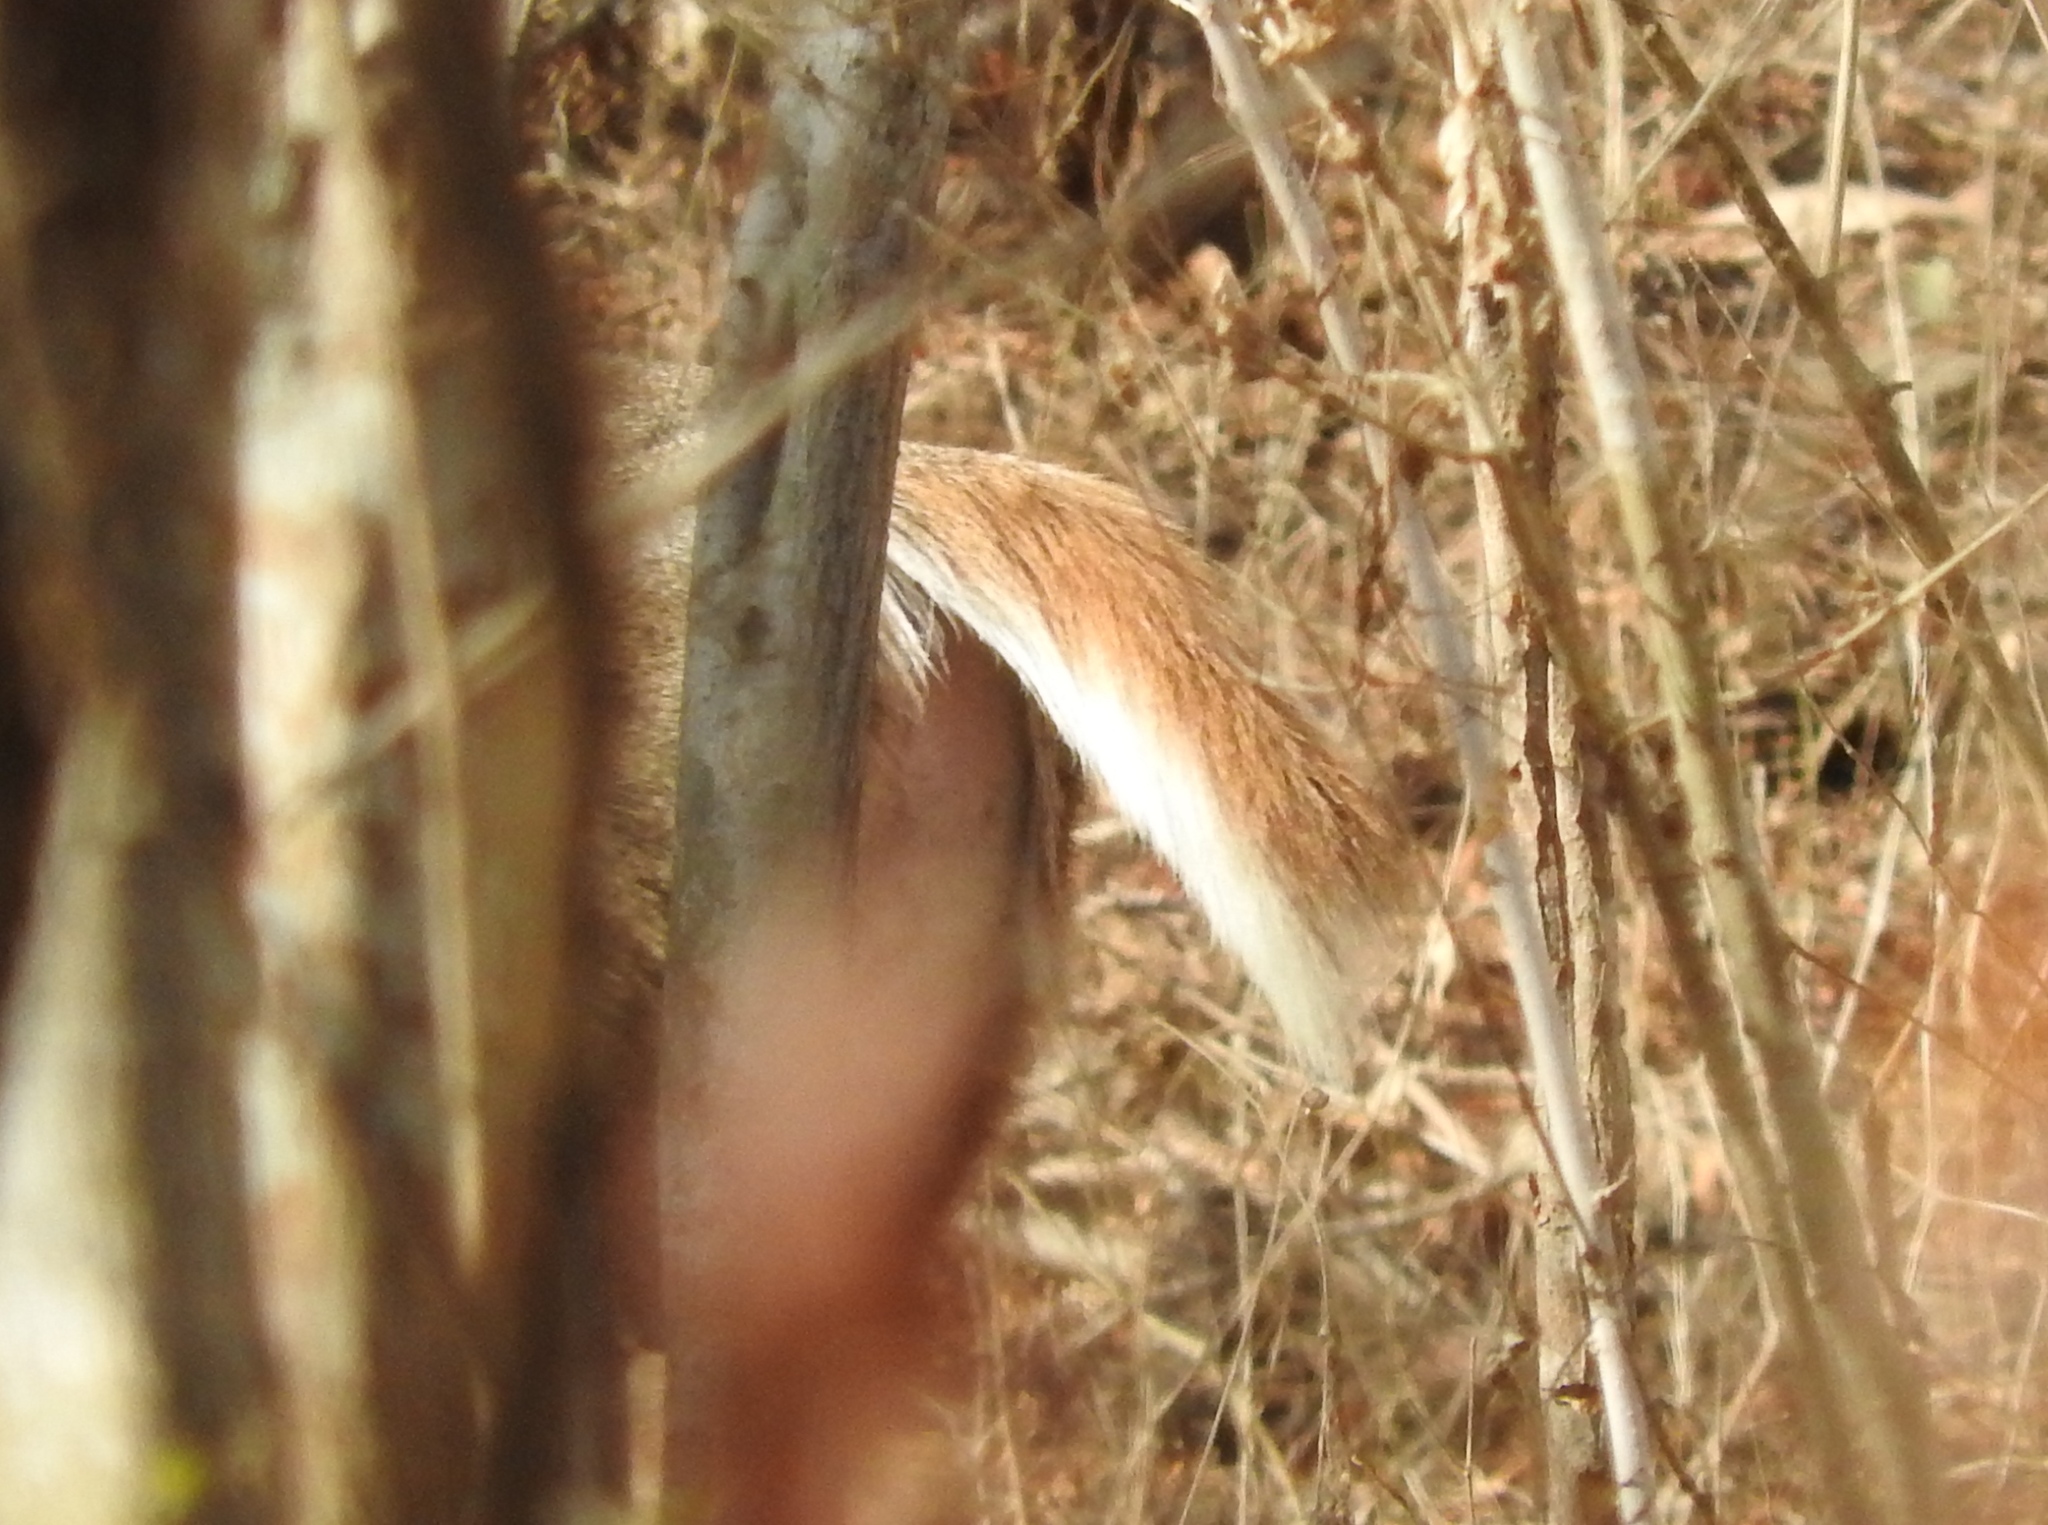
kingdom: Animalia
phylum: Chordata
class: Mammalia
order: Artiodactyla
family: Cervidae
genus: Odocoileus
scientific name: Odocoileus virginianus
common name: White-tailed deer
